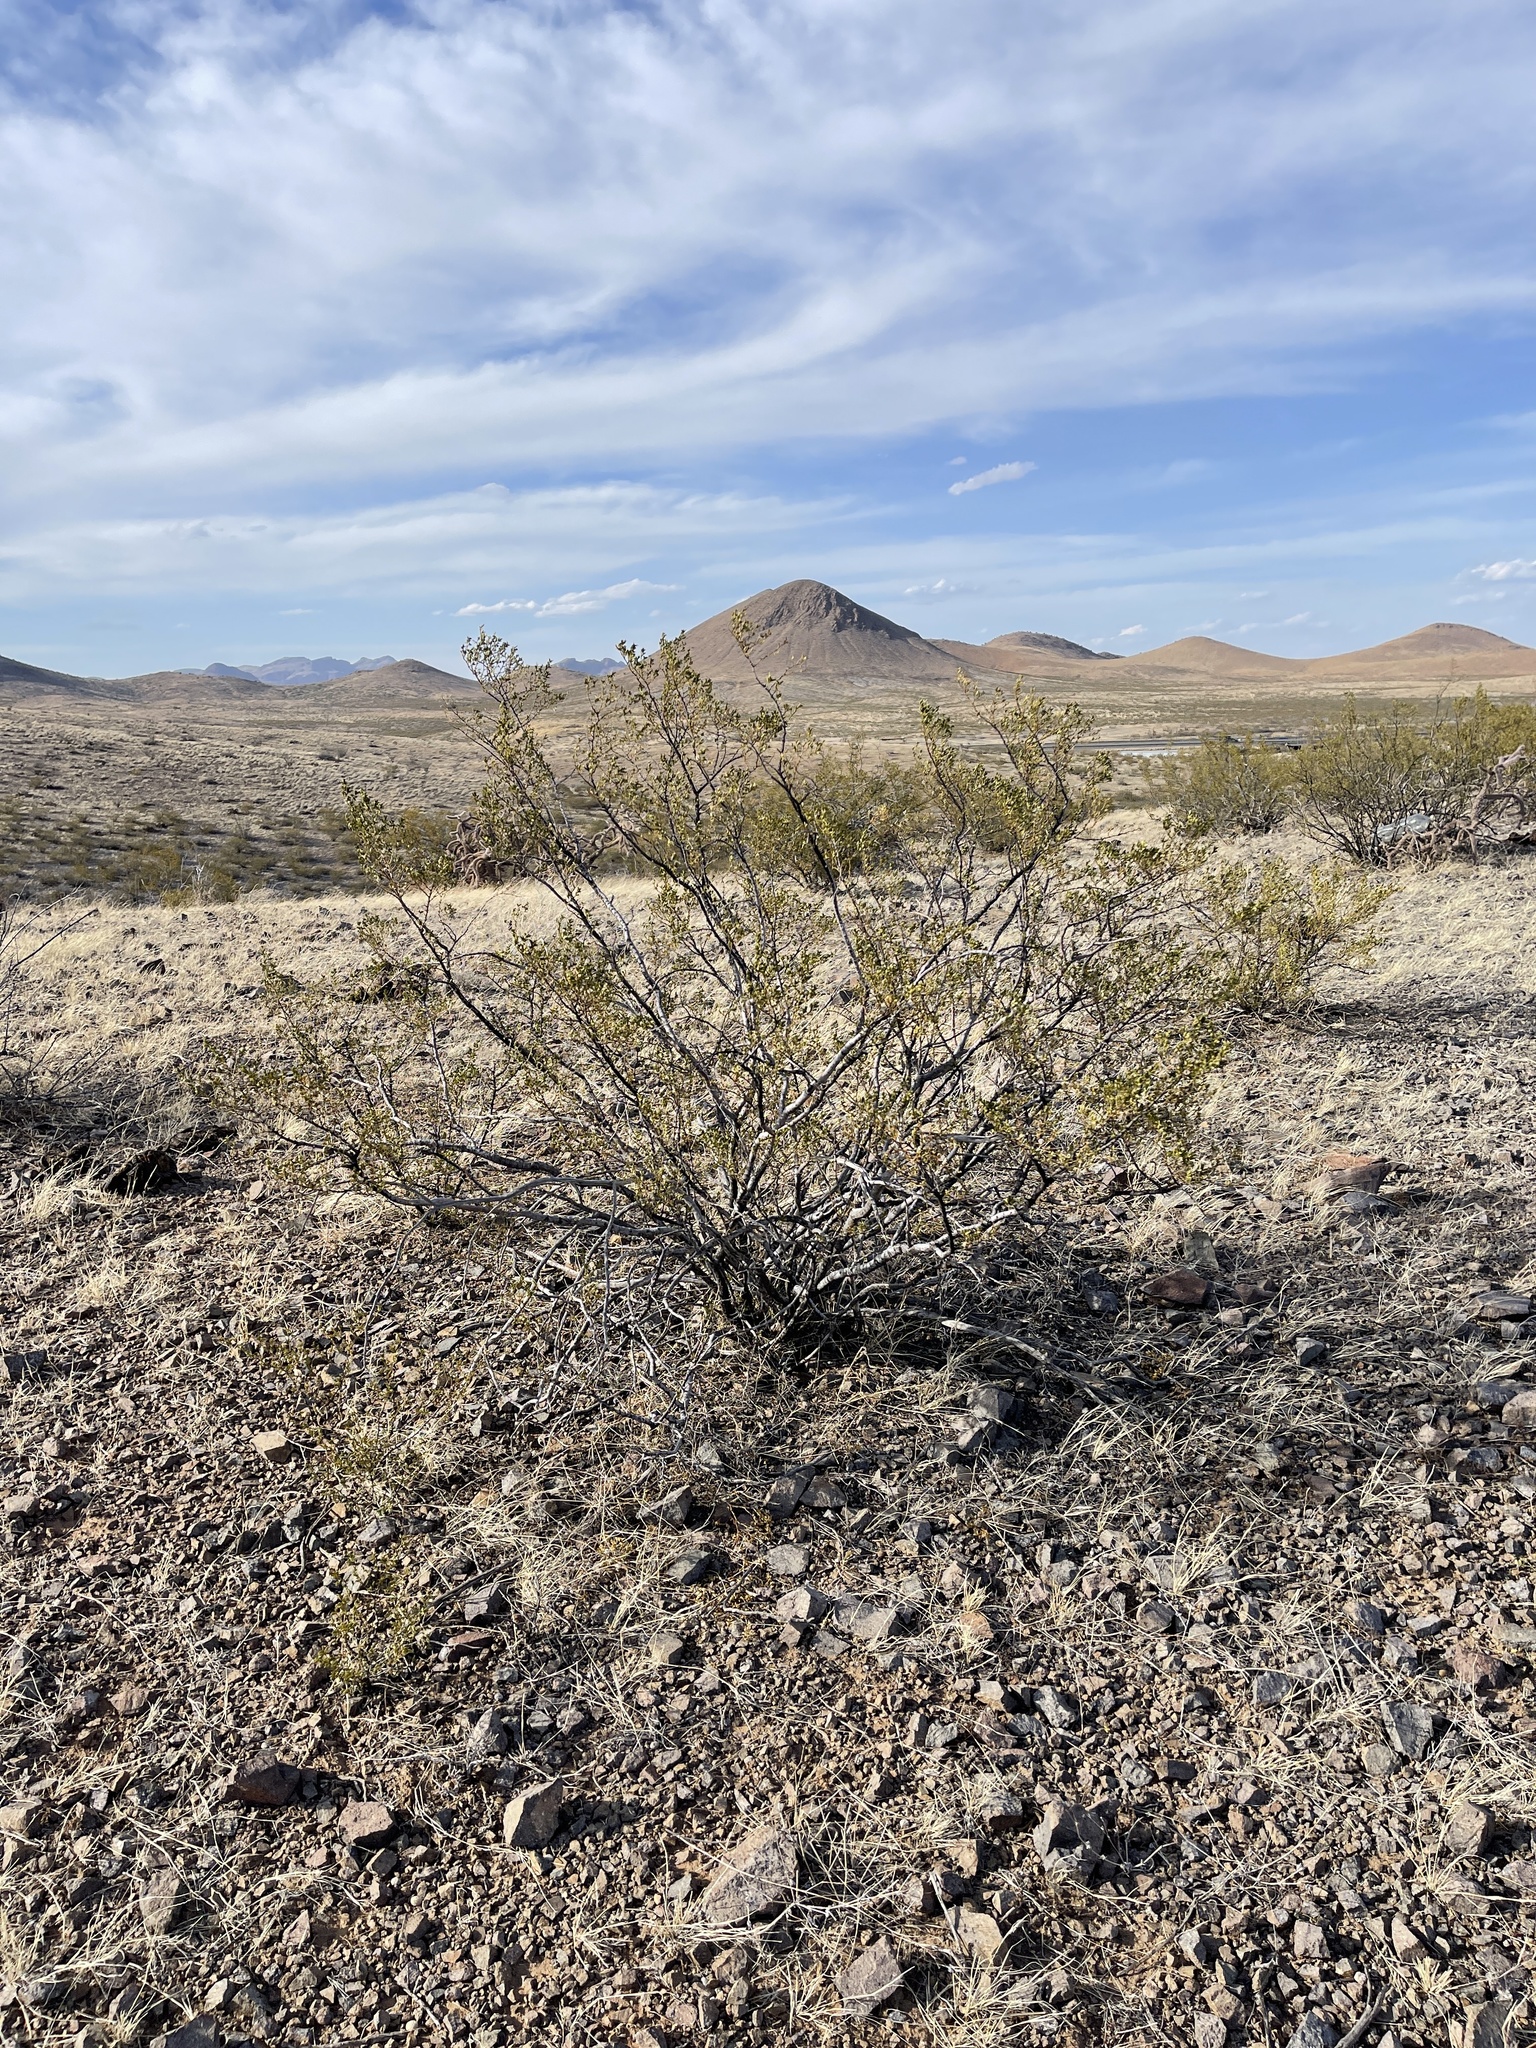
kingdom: Plantae
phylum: Tracheophyta
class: Magnoliopsida
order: Zygophyllales
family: Zygophyllaceae
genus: Larrea
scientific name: Larrea tridentata
